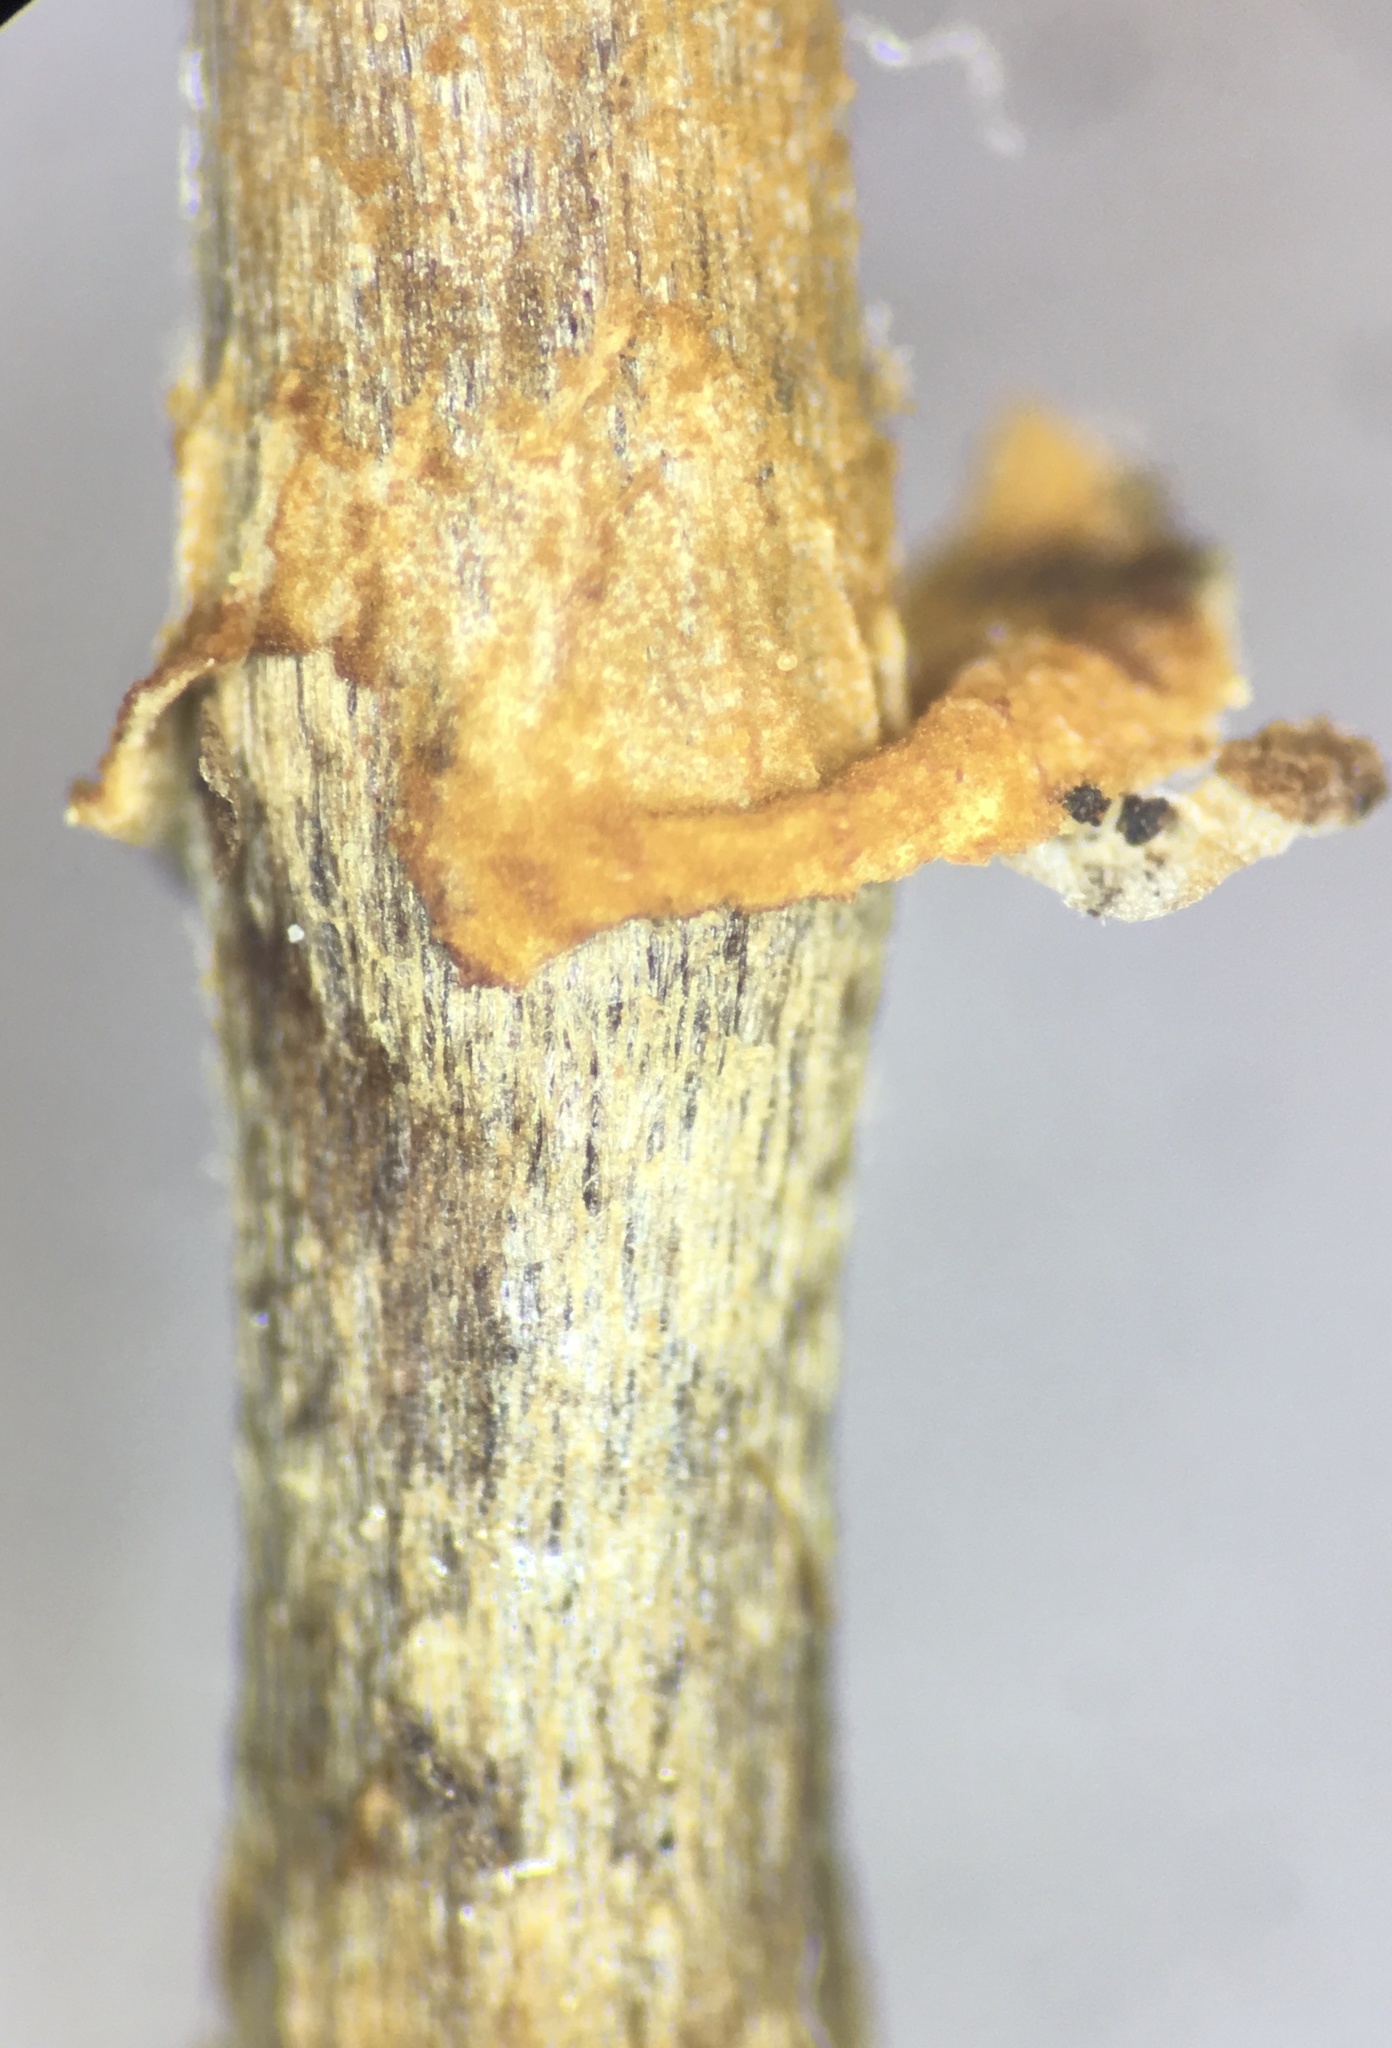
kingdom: Fungi
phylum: Basidiomycota
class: Agaricomycetes
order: Agaricales
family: Bolbitiaceae
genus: Conocybe
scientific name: Conocybe rugosa
